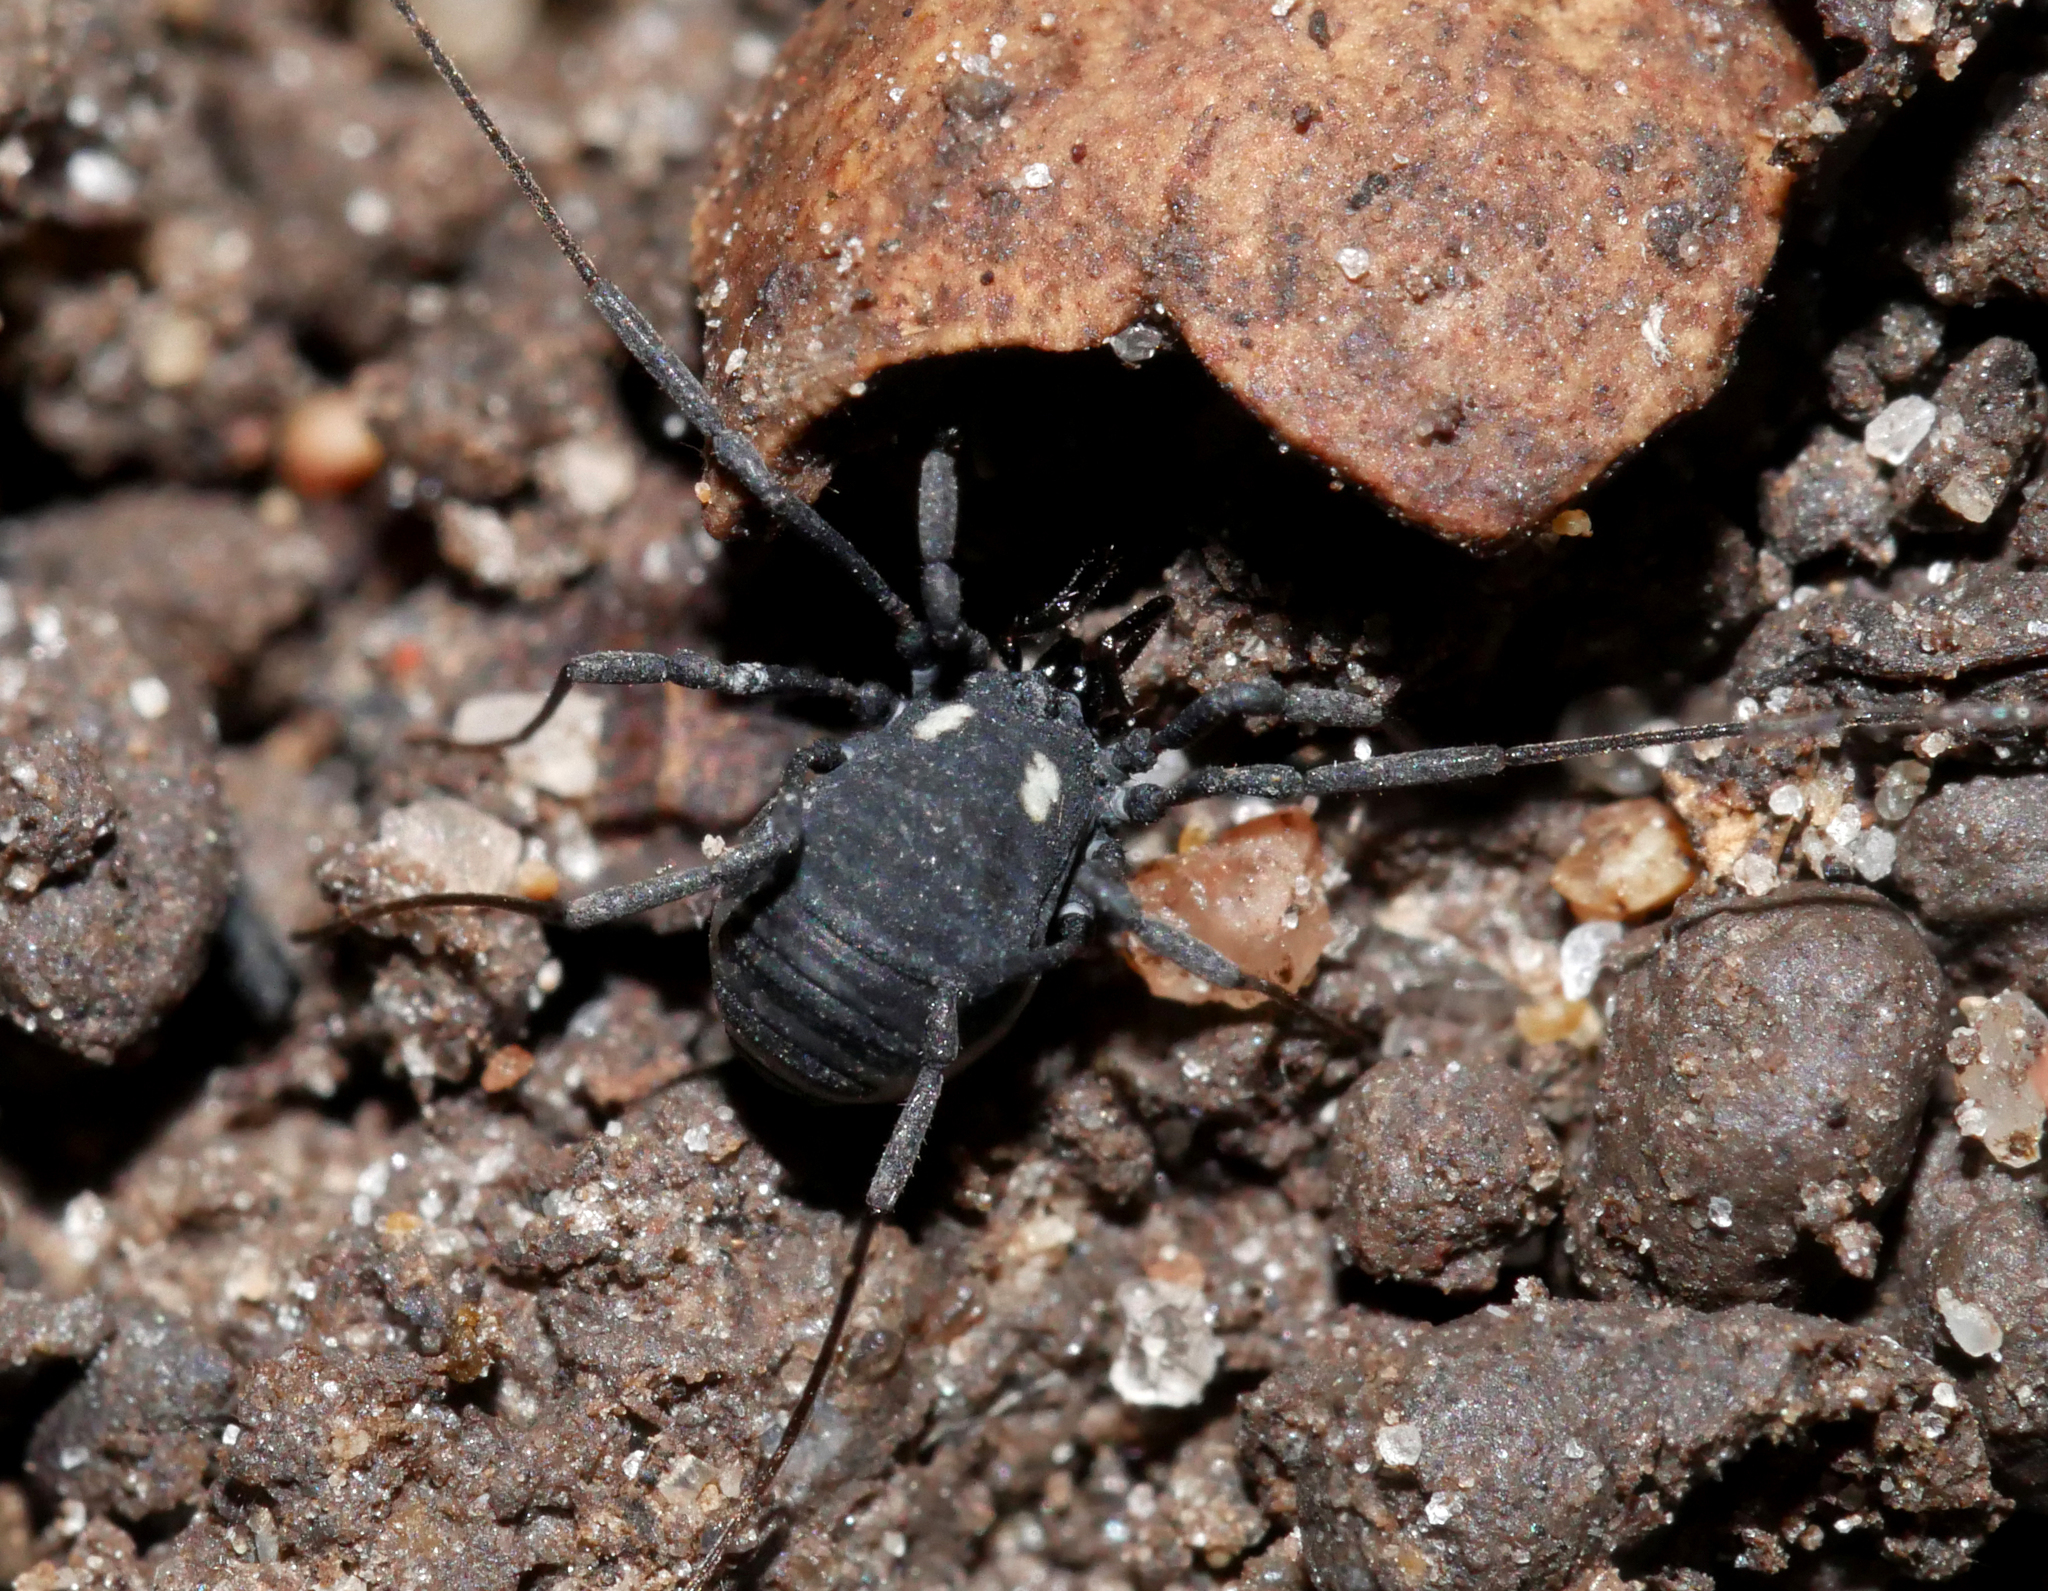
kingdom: Animalia
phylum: Arthropoda
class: Arachnida
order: Opiliones
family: Nemastomatidae
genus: Nemastoma
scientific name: Nemastoma lugubre
